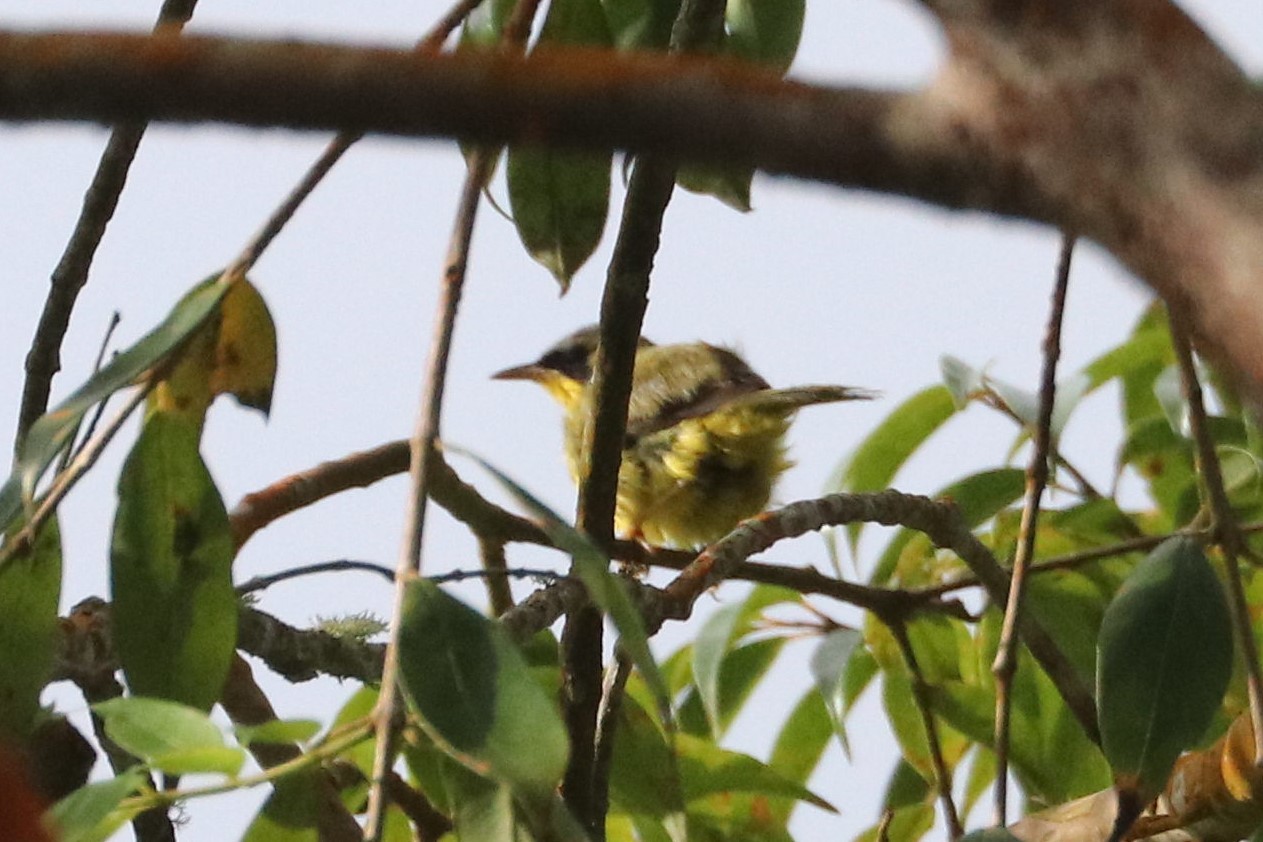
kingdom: Animalia
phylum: Chordata
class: Aves
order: Passeriformes
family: Parulidae
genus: Geothlypis
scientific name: Geothlypis aequinoctialis
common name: Masked yellowthroat
